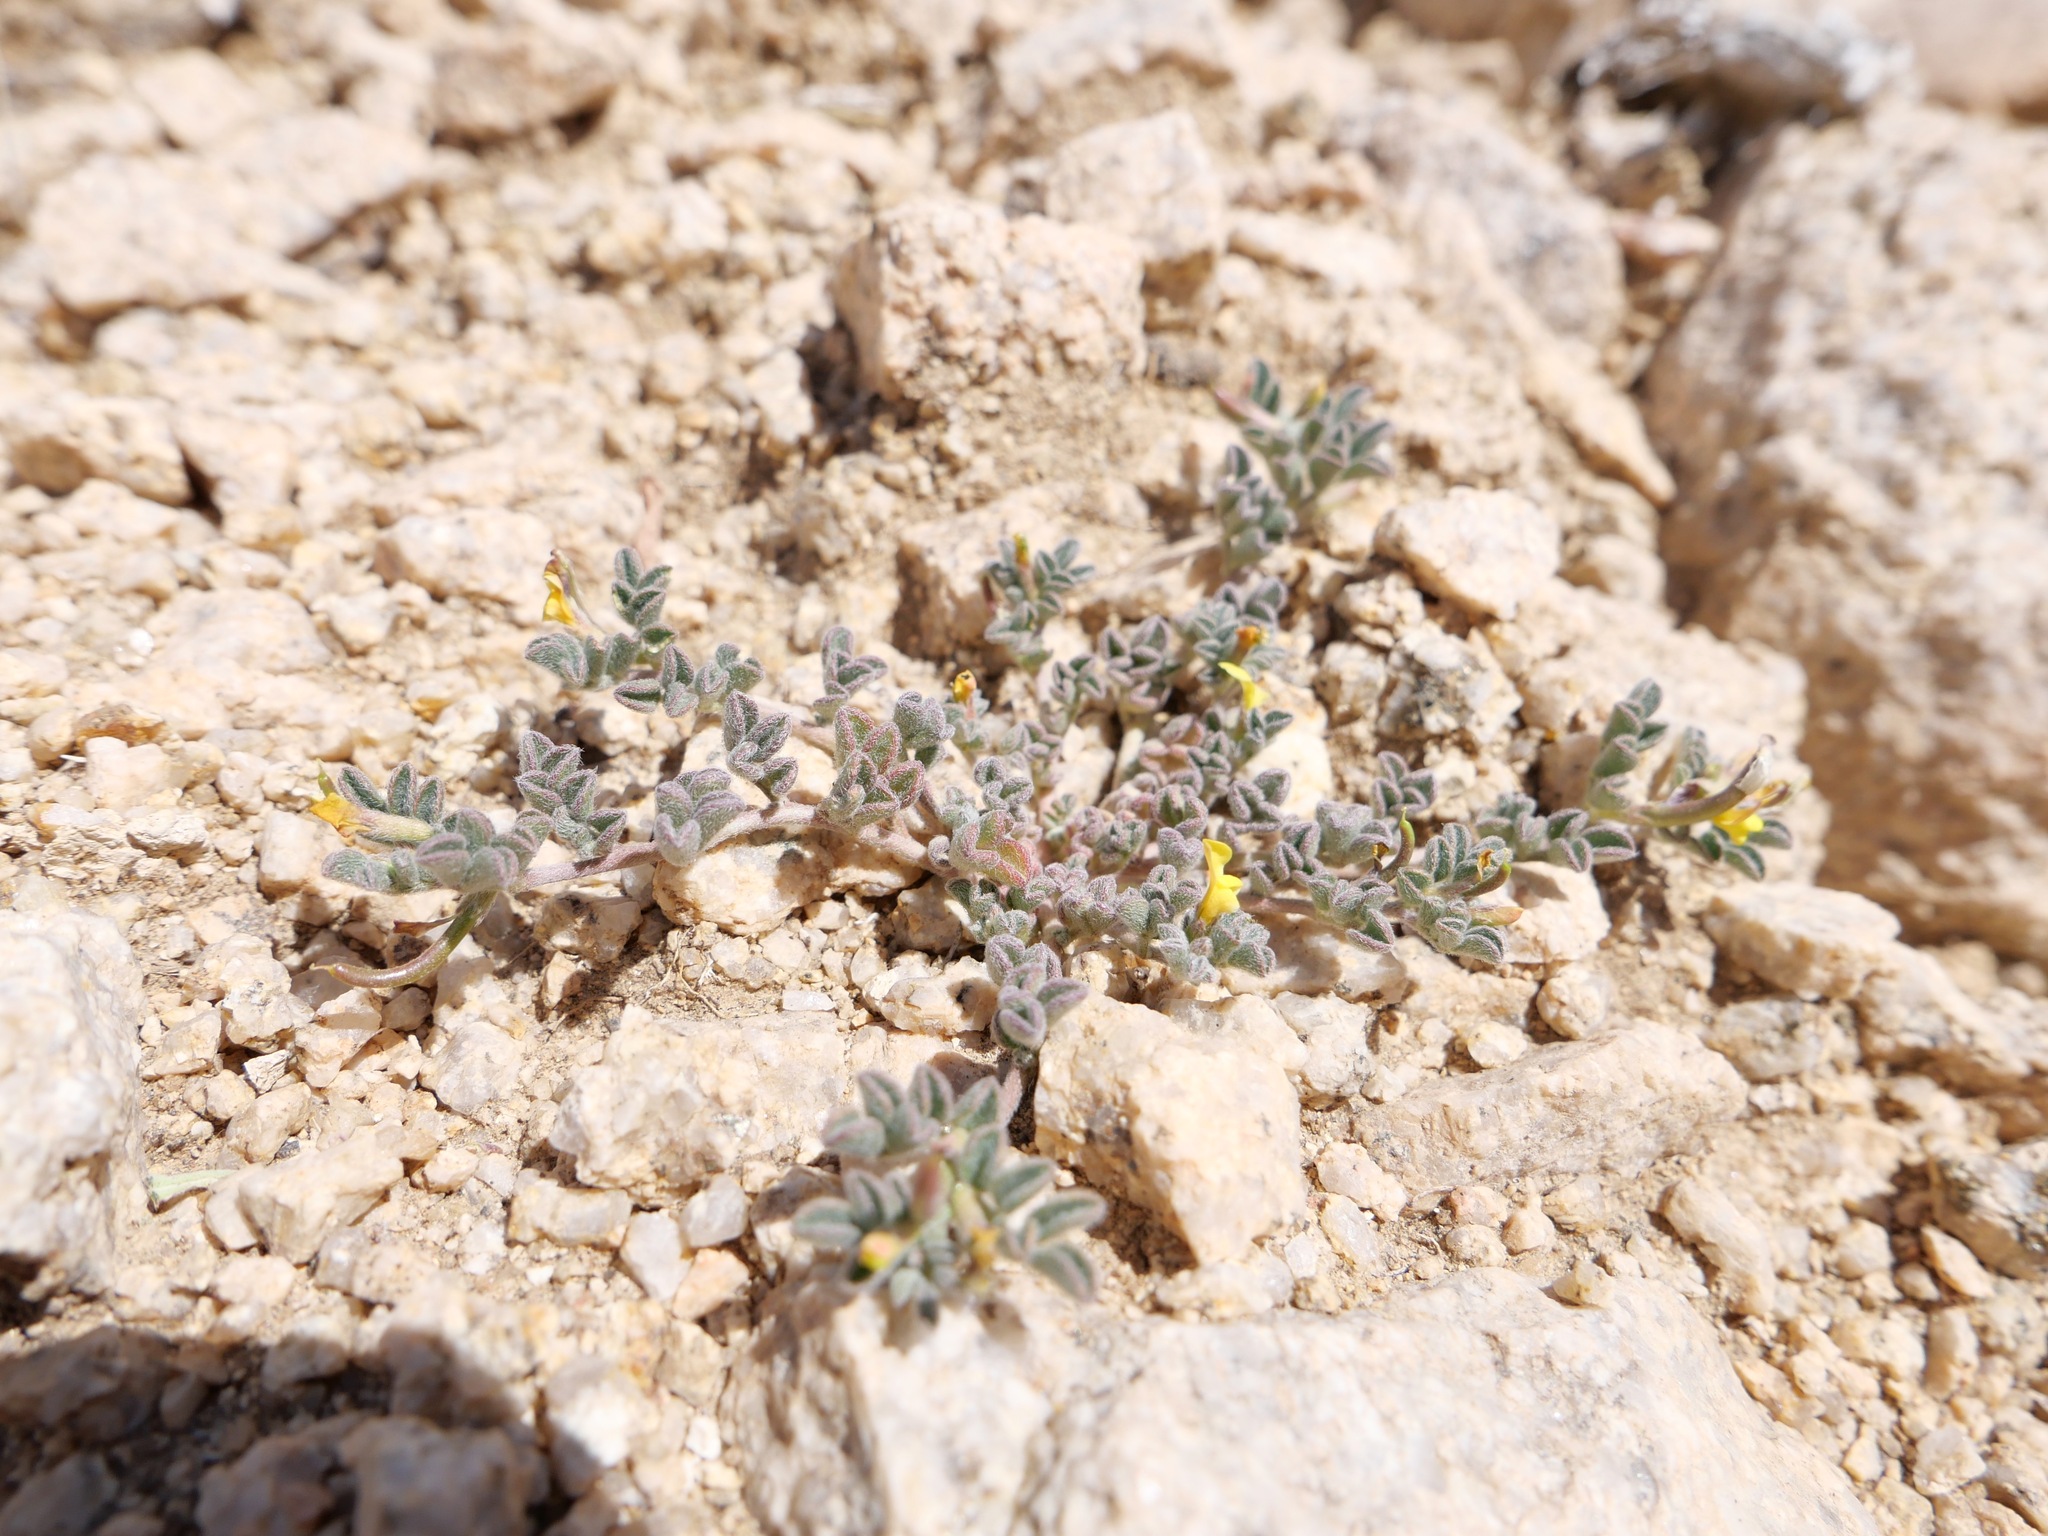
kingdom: Plantae
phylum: Tracheophyta
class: Magnoliopsida
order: Fabales
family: Fabaceae
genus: Acmispon
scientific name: Acmispon strigosus
